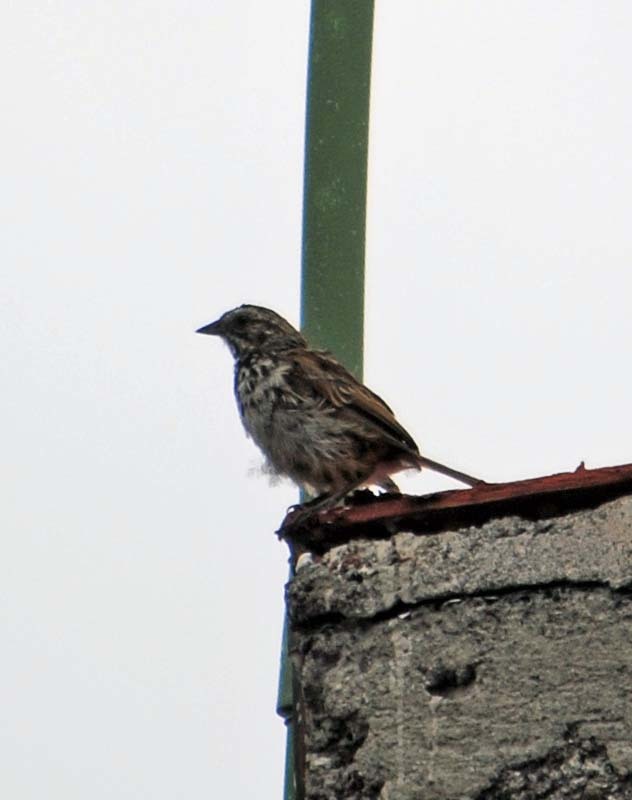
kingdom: Animalia
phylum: Chordata
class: Aves
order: Passeriformes
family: Passerellidae
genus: Melospiza
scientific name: Melospiza melodia
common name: Song sparrow
